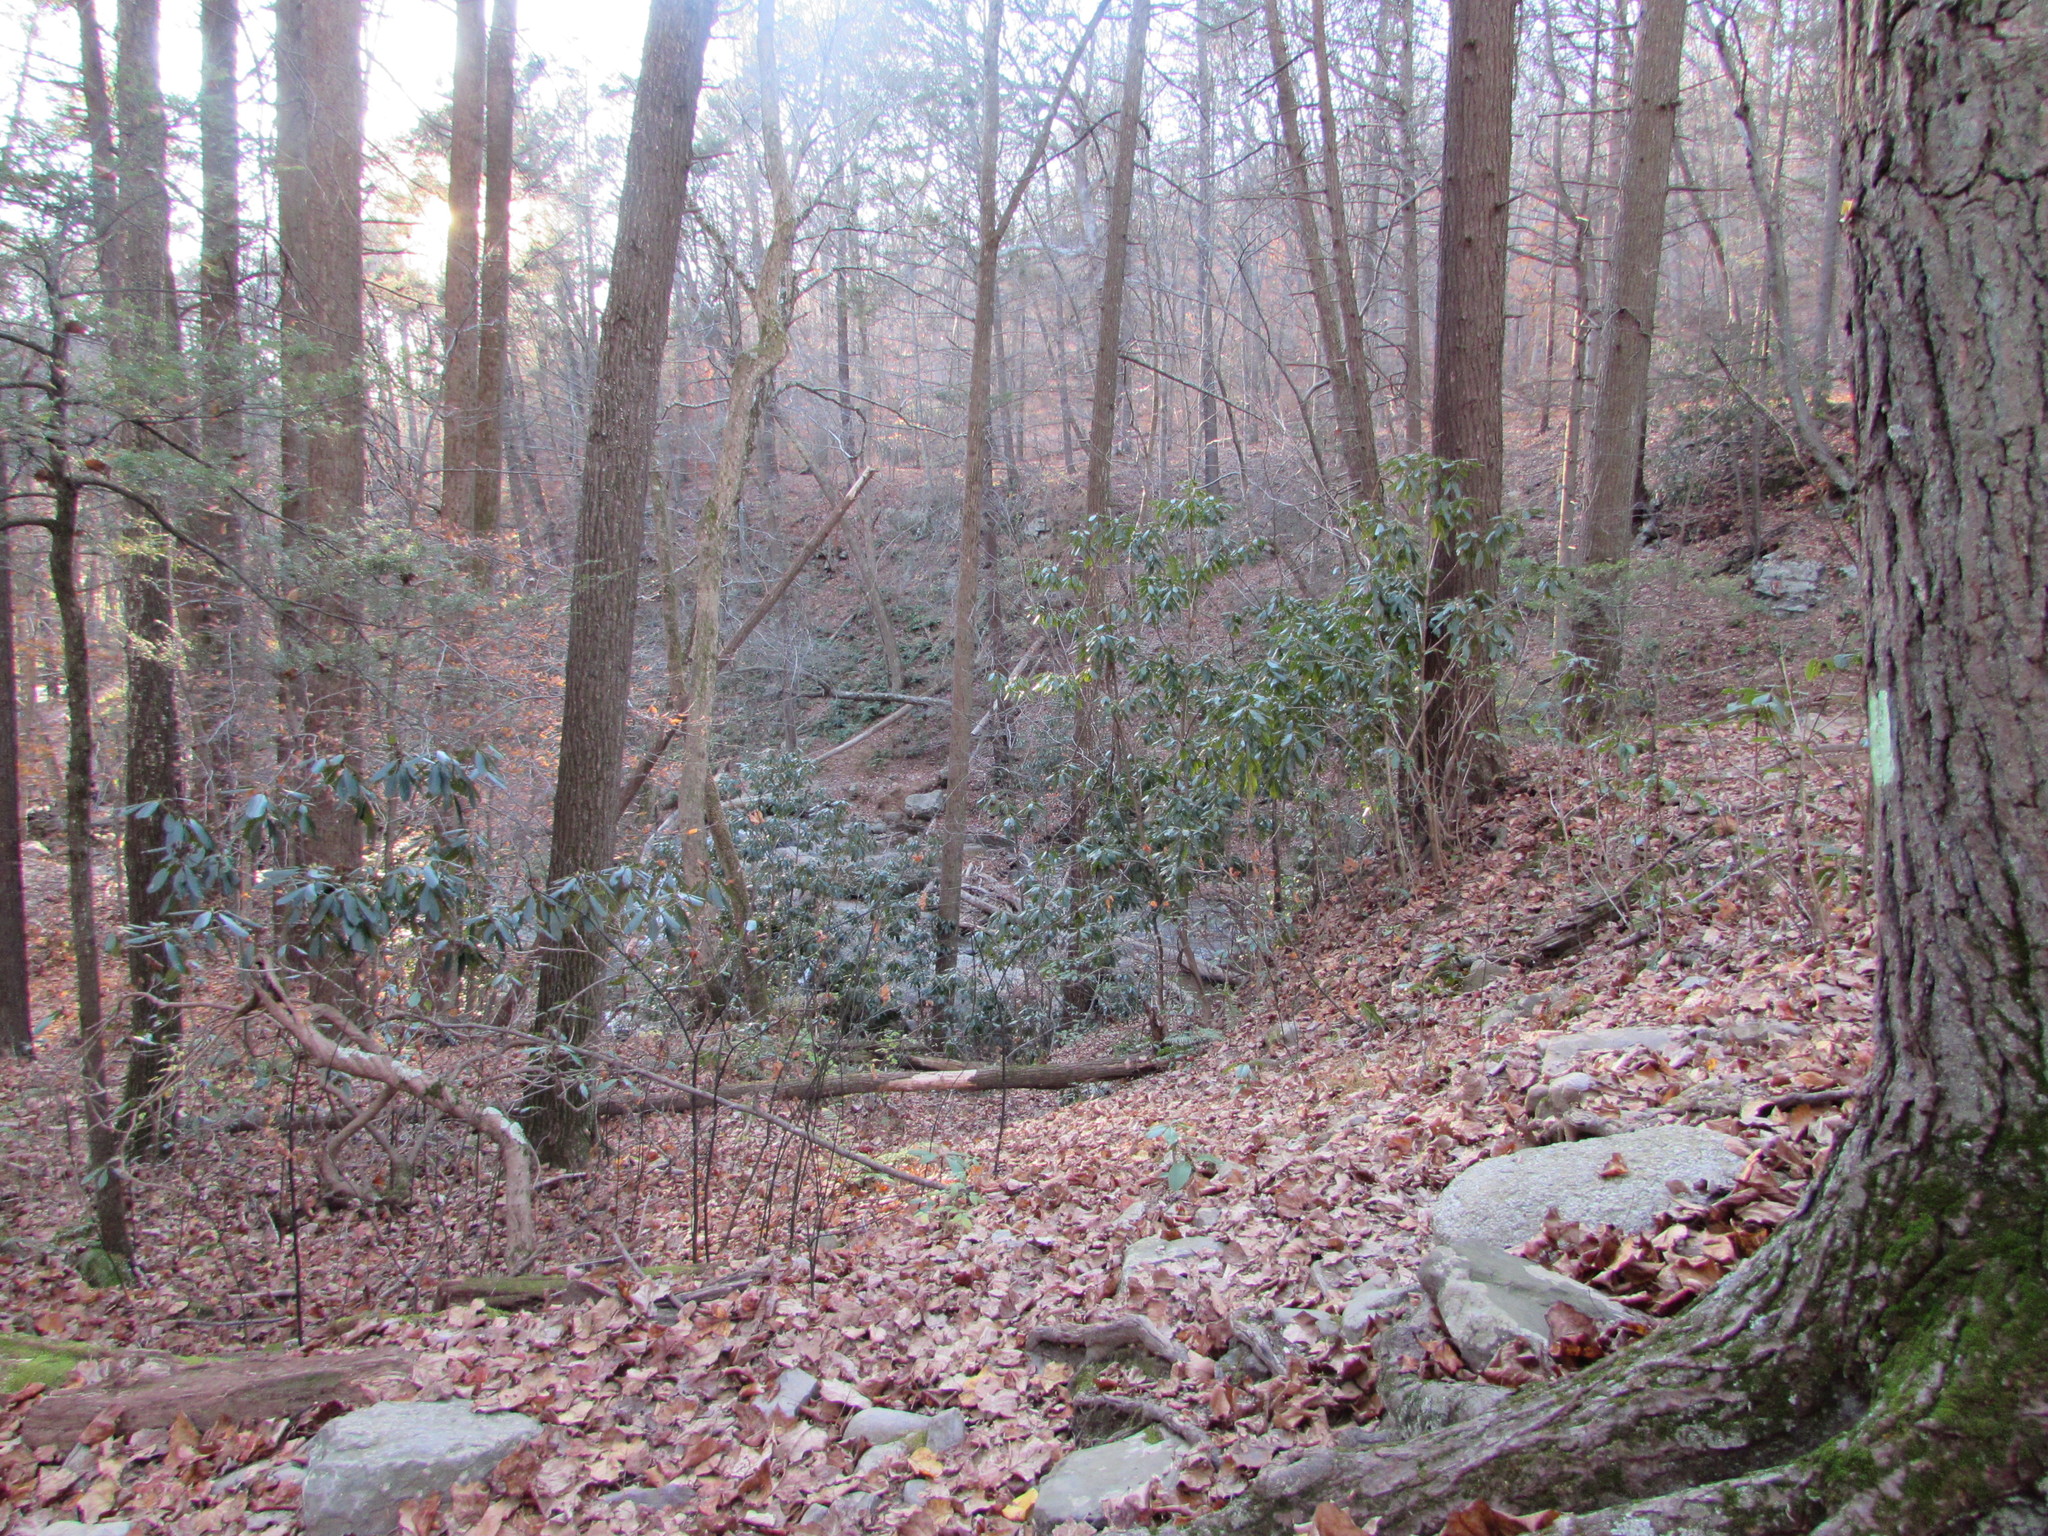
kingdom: Plantae
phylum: Tracheophyta
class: Magnoliopsida
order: Ericales
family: Ericaceae
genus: Rhododendron
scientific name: Rhododendron maximum
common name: Great rhododendron
